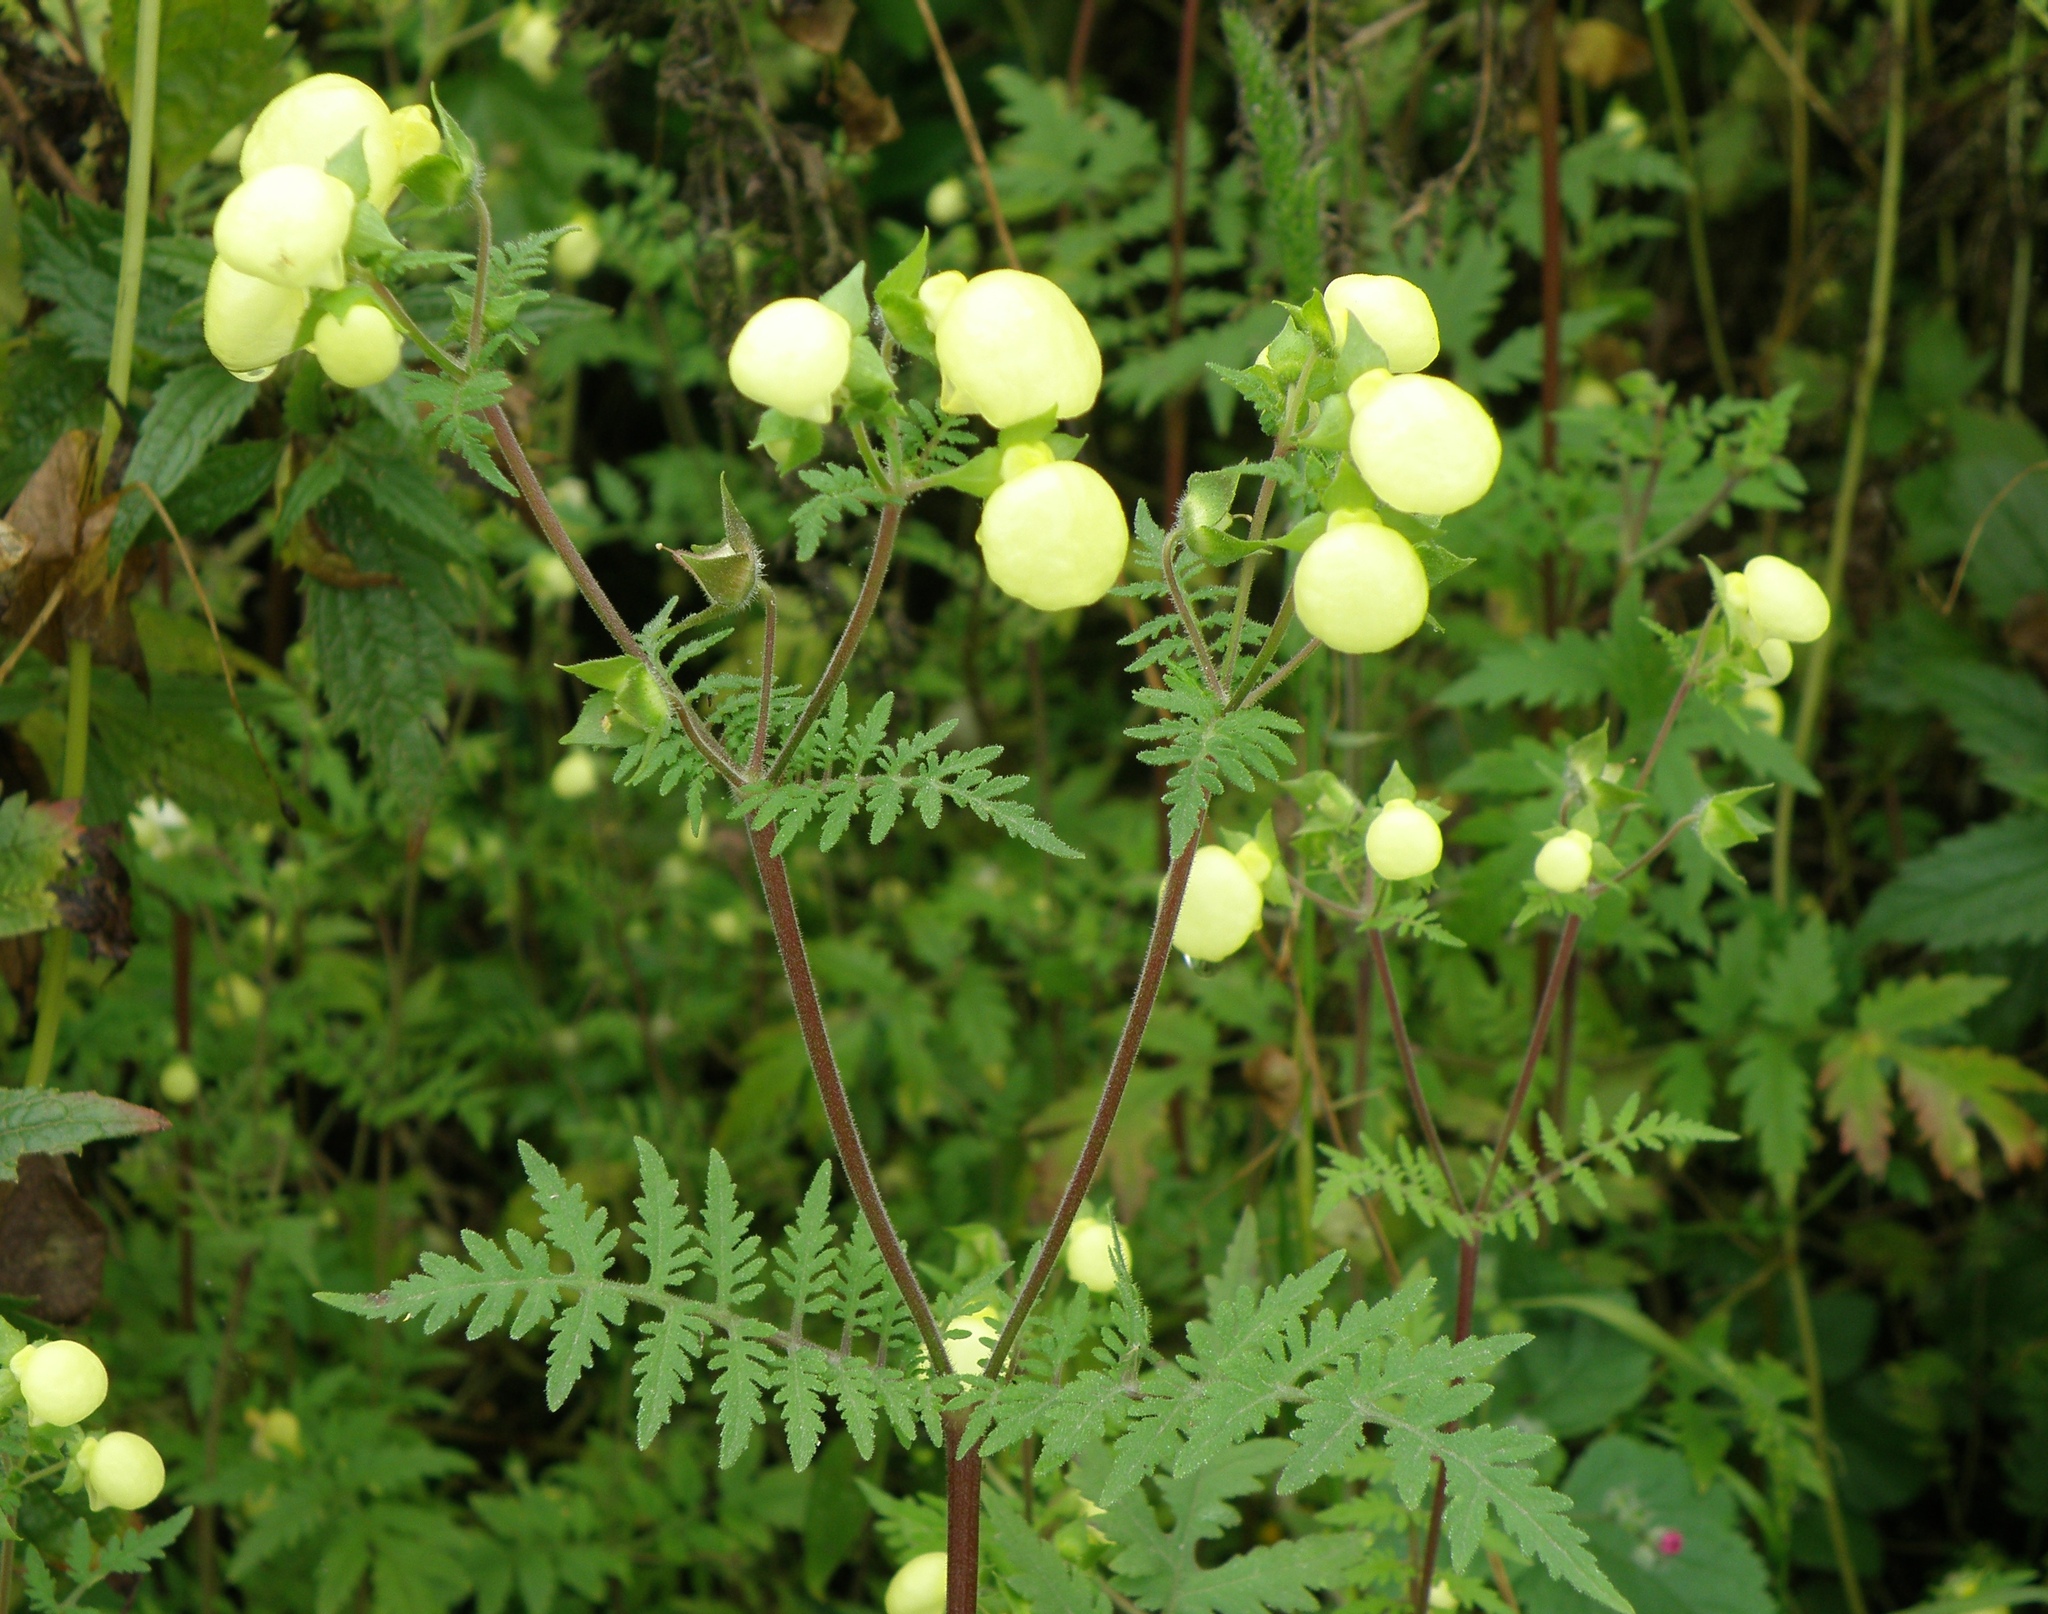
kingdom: Plantae
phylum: Tracheophyta
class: Magnoliopsida
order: Lamiales
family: Calceolariaceae
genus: Calceolaria
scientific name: Calceolaria pinnata
